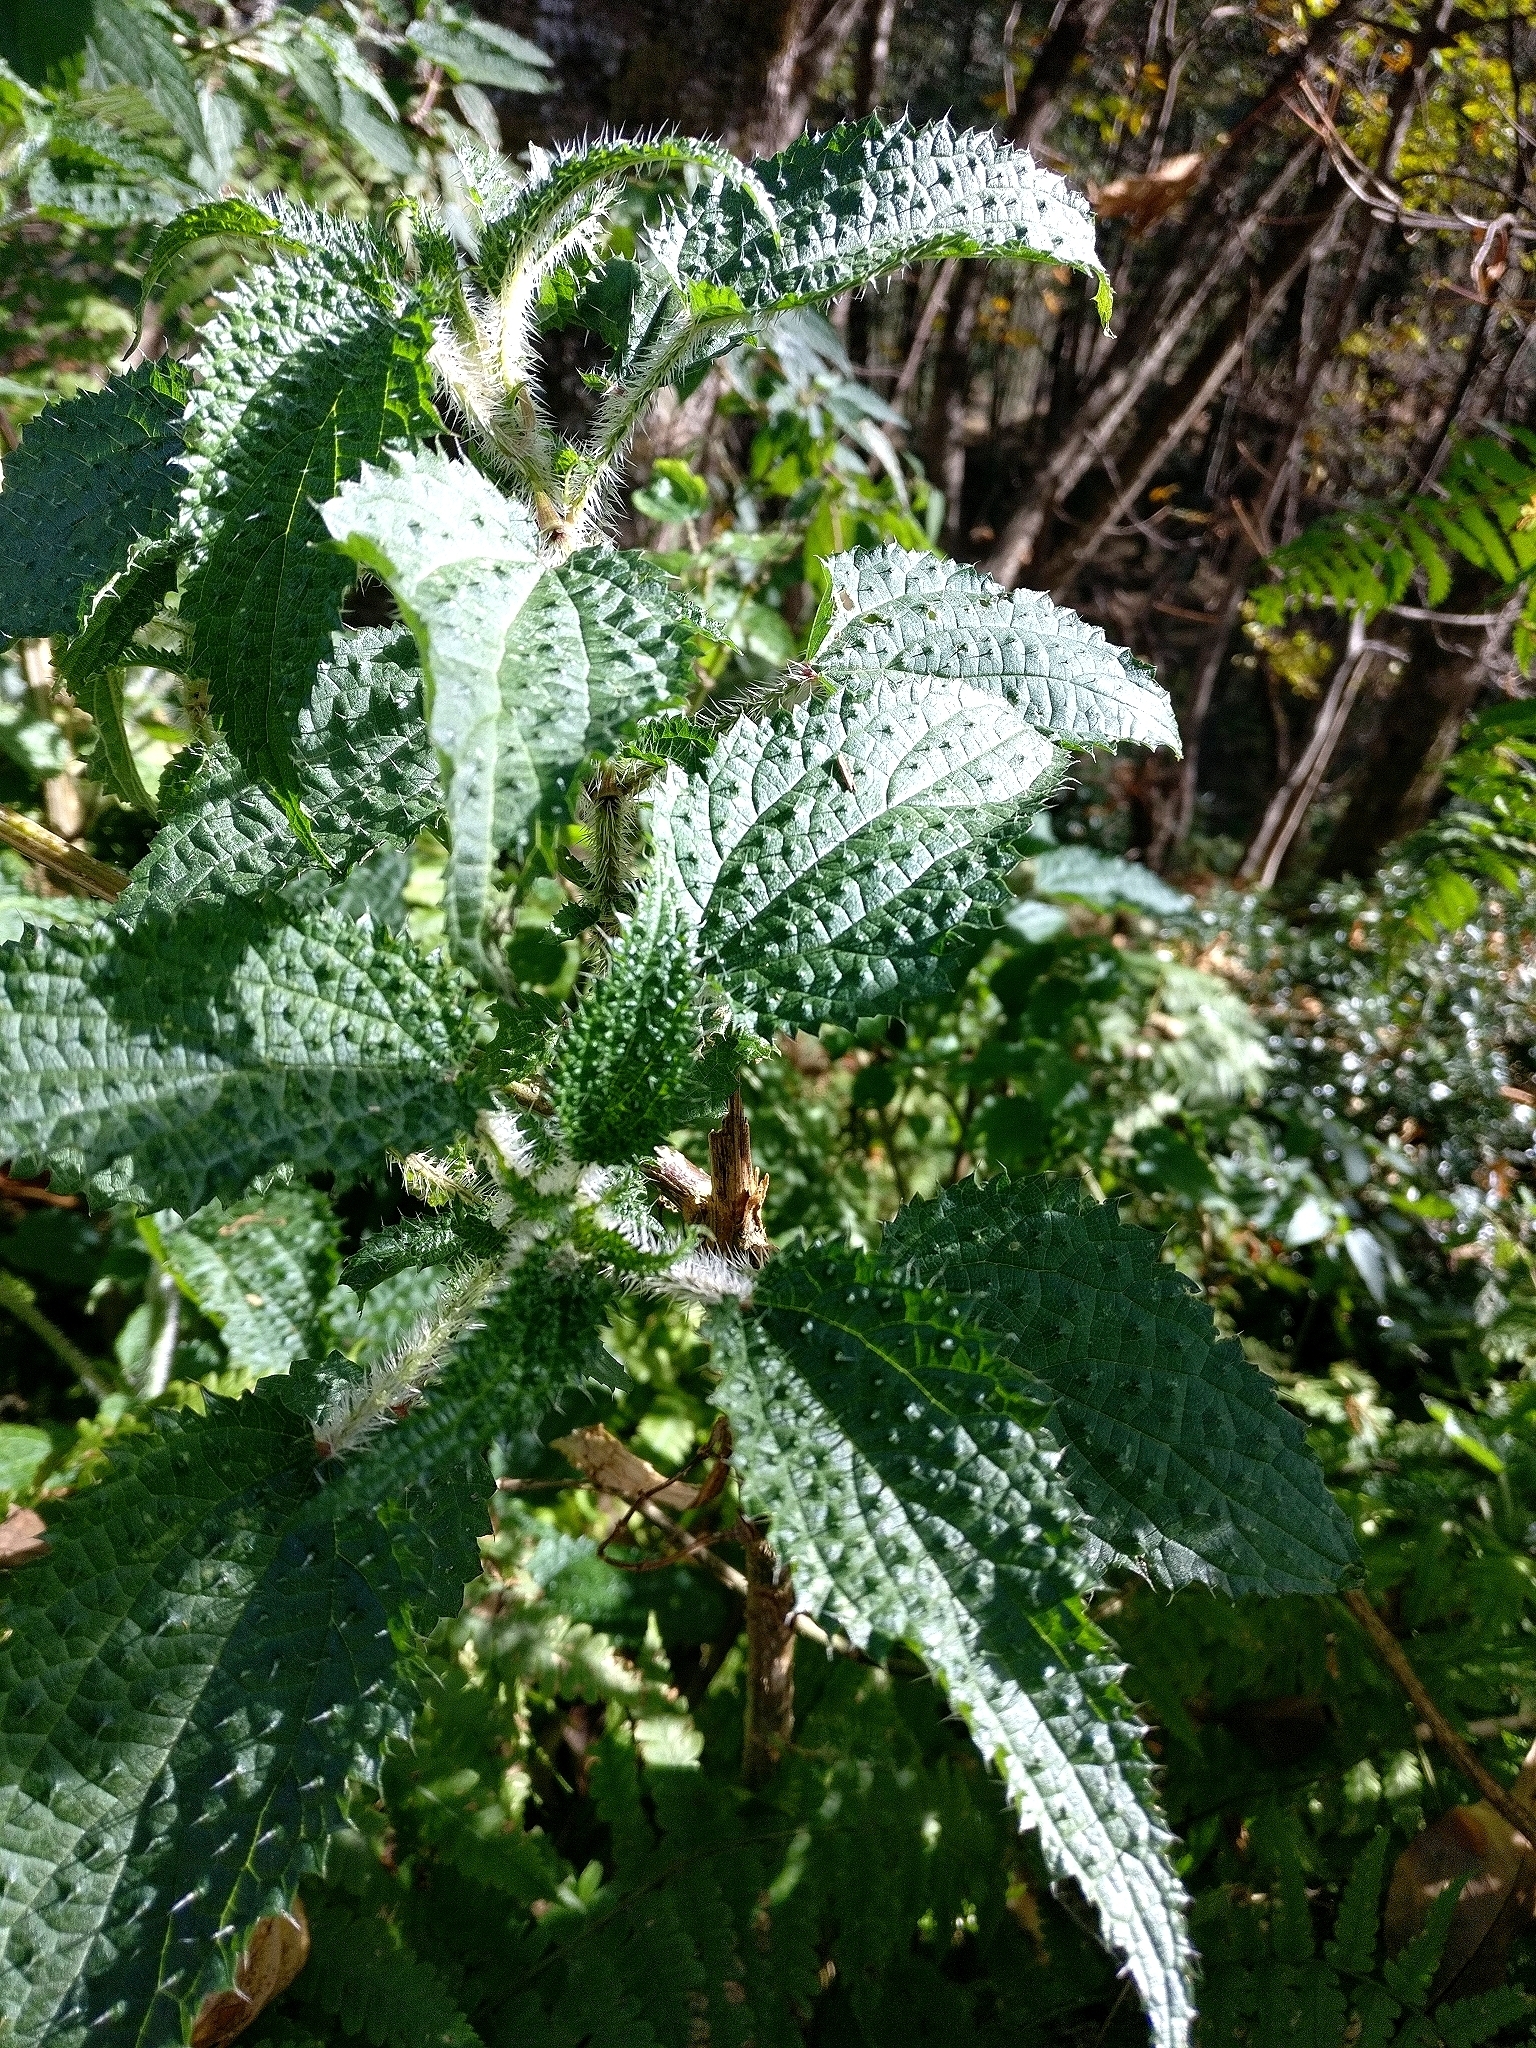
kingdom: Plantae
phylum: Tracheophyta
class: Magnoliopsida
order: Rosales
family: Urticaceae
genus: Urtica
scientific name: Urtica ardens
